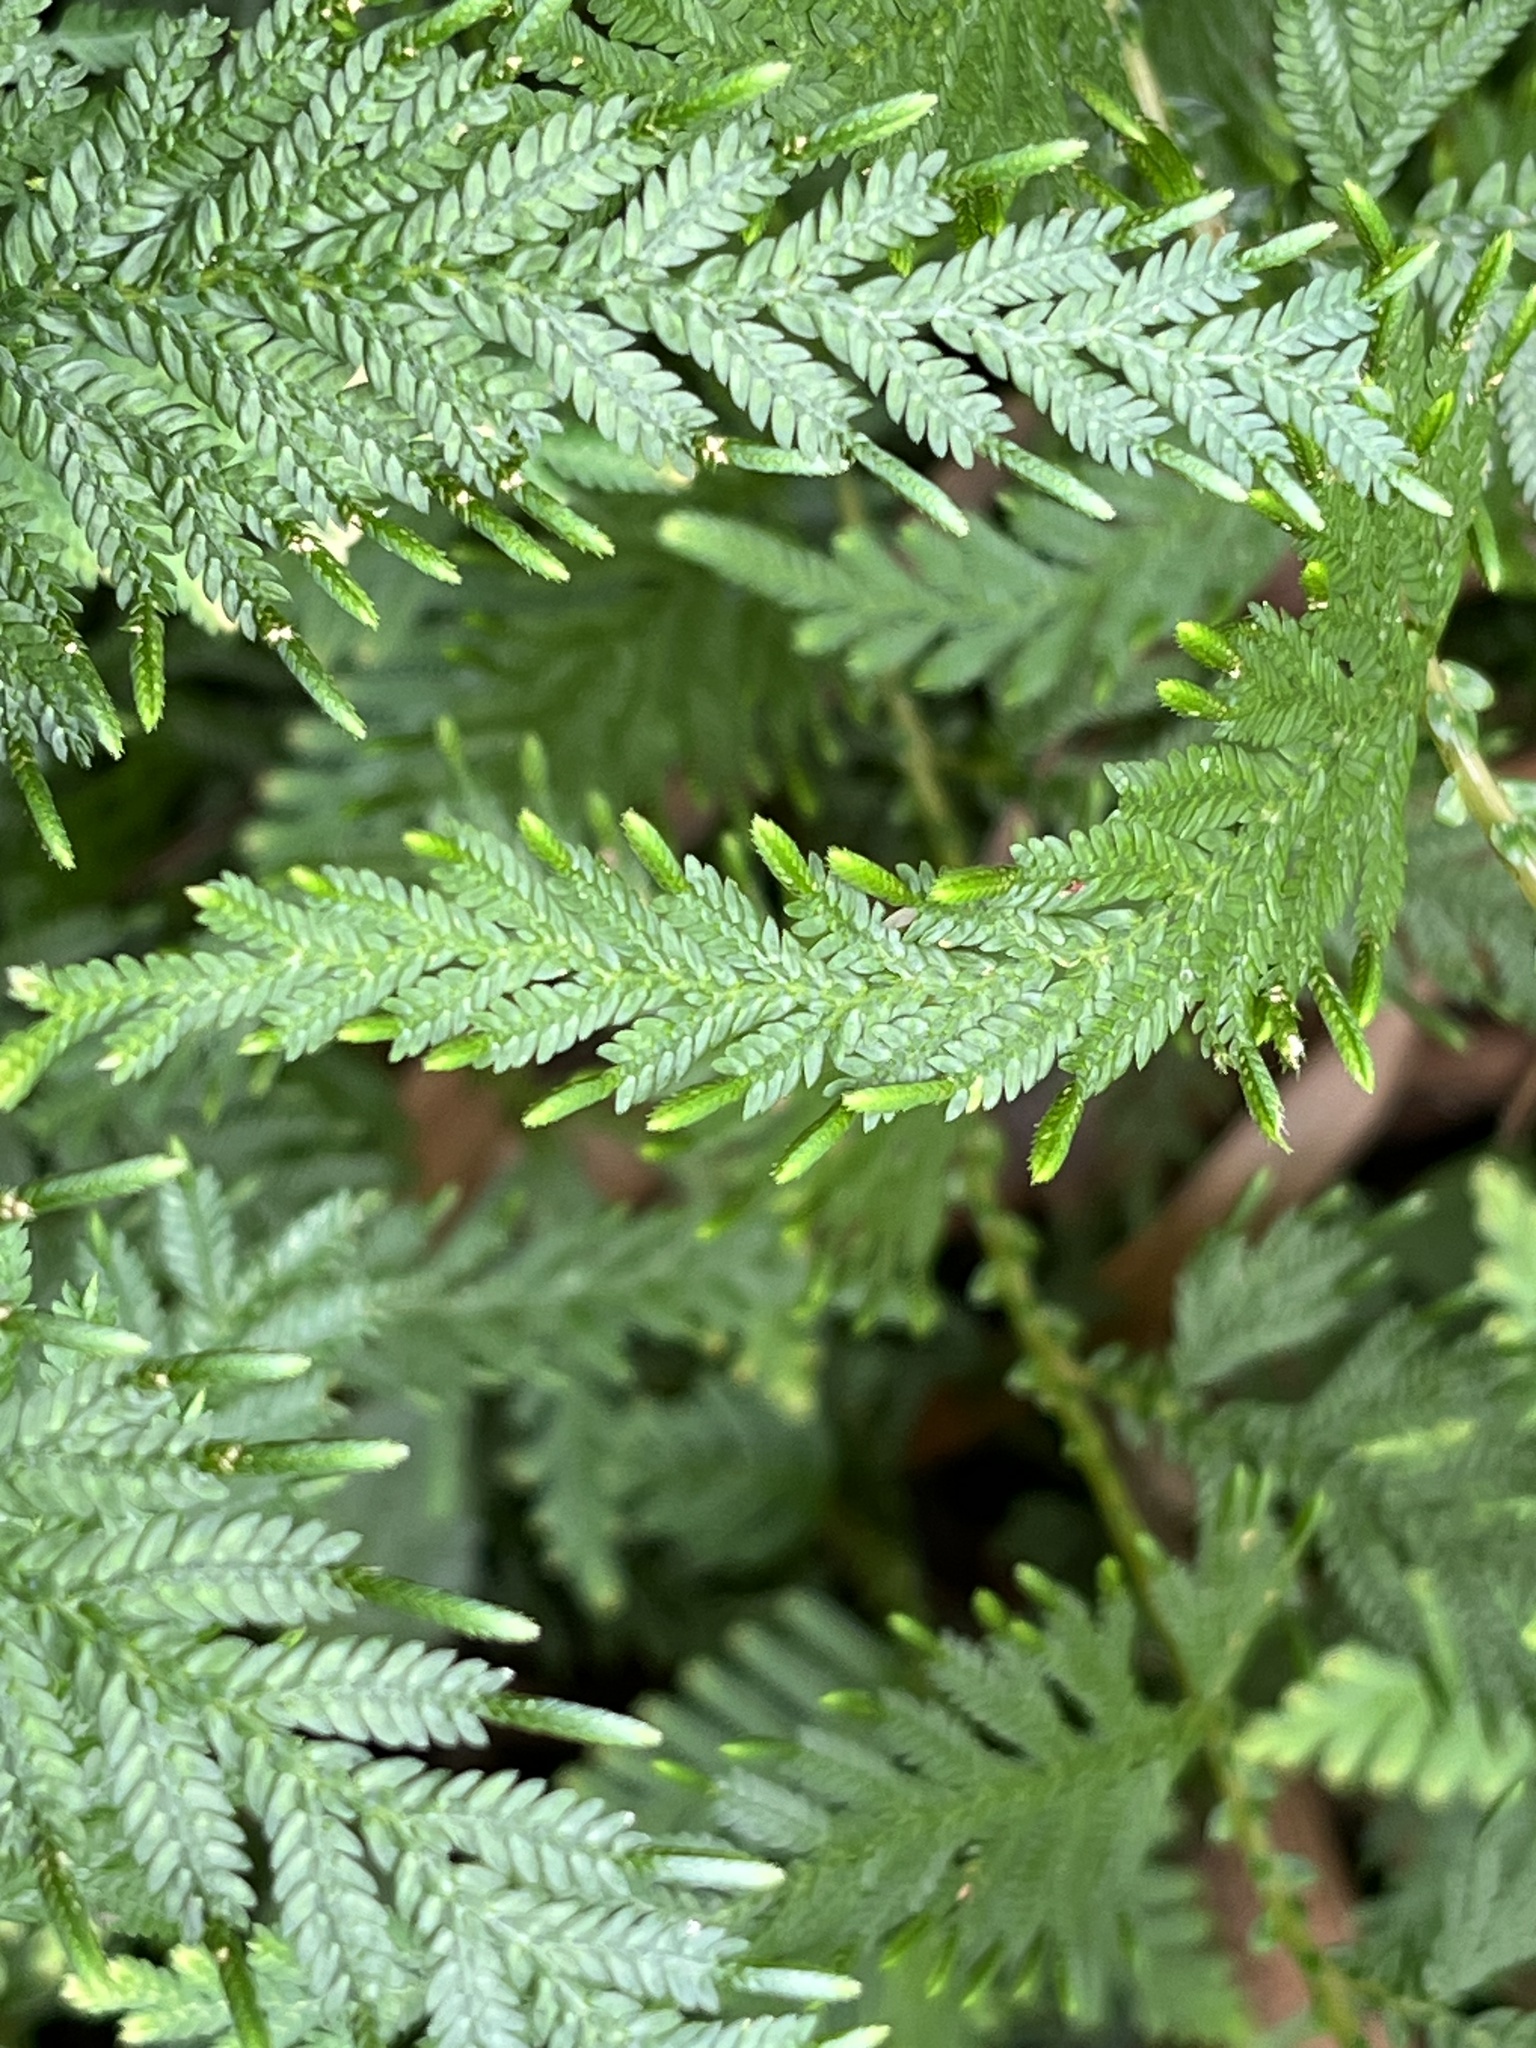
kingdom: Plantae
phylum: Tracheophyta
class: Lycopodiopsida
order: Selaginellales
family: Selaginellaceae
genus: Selaginella
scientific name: Selaginella delicatula
